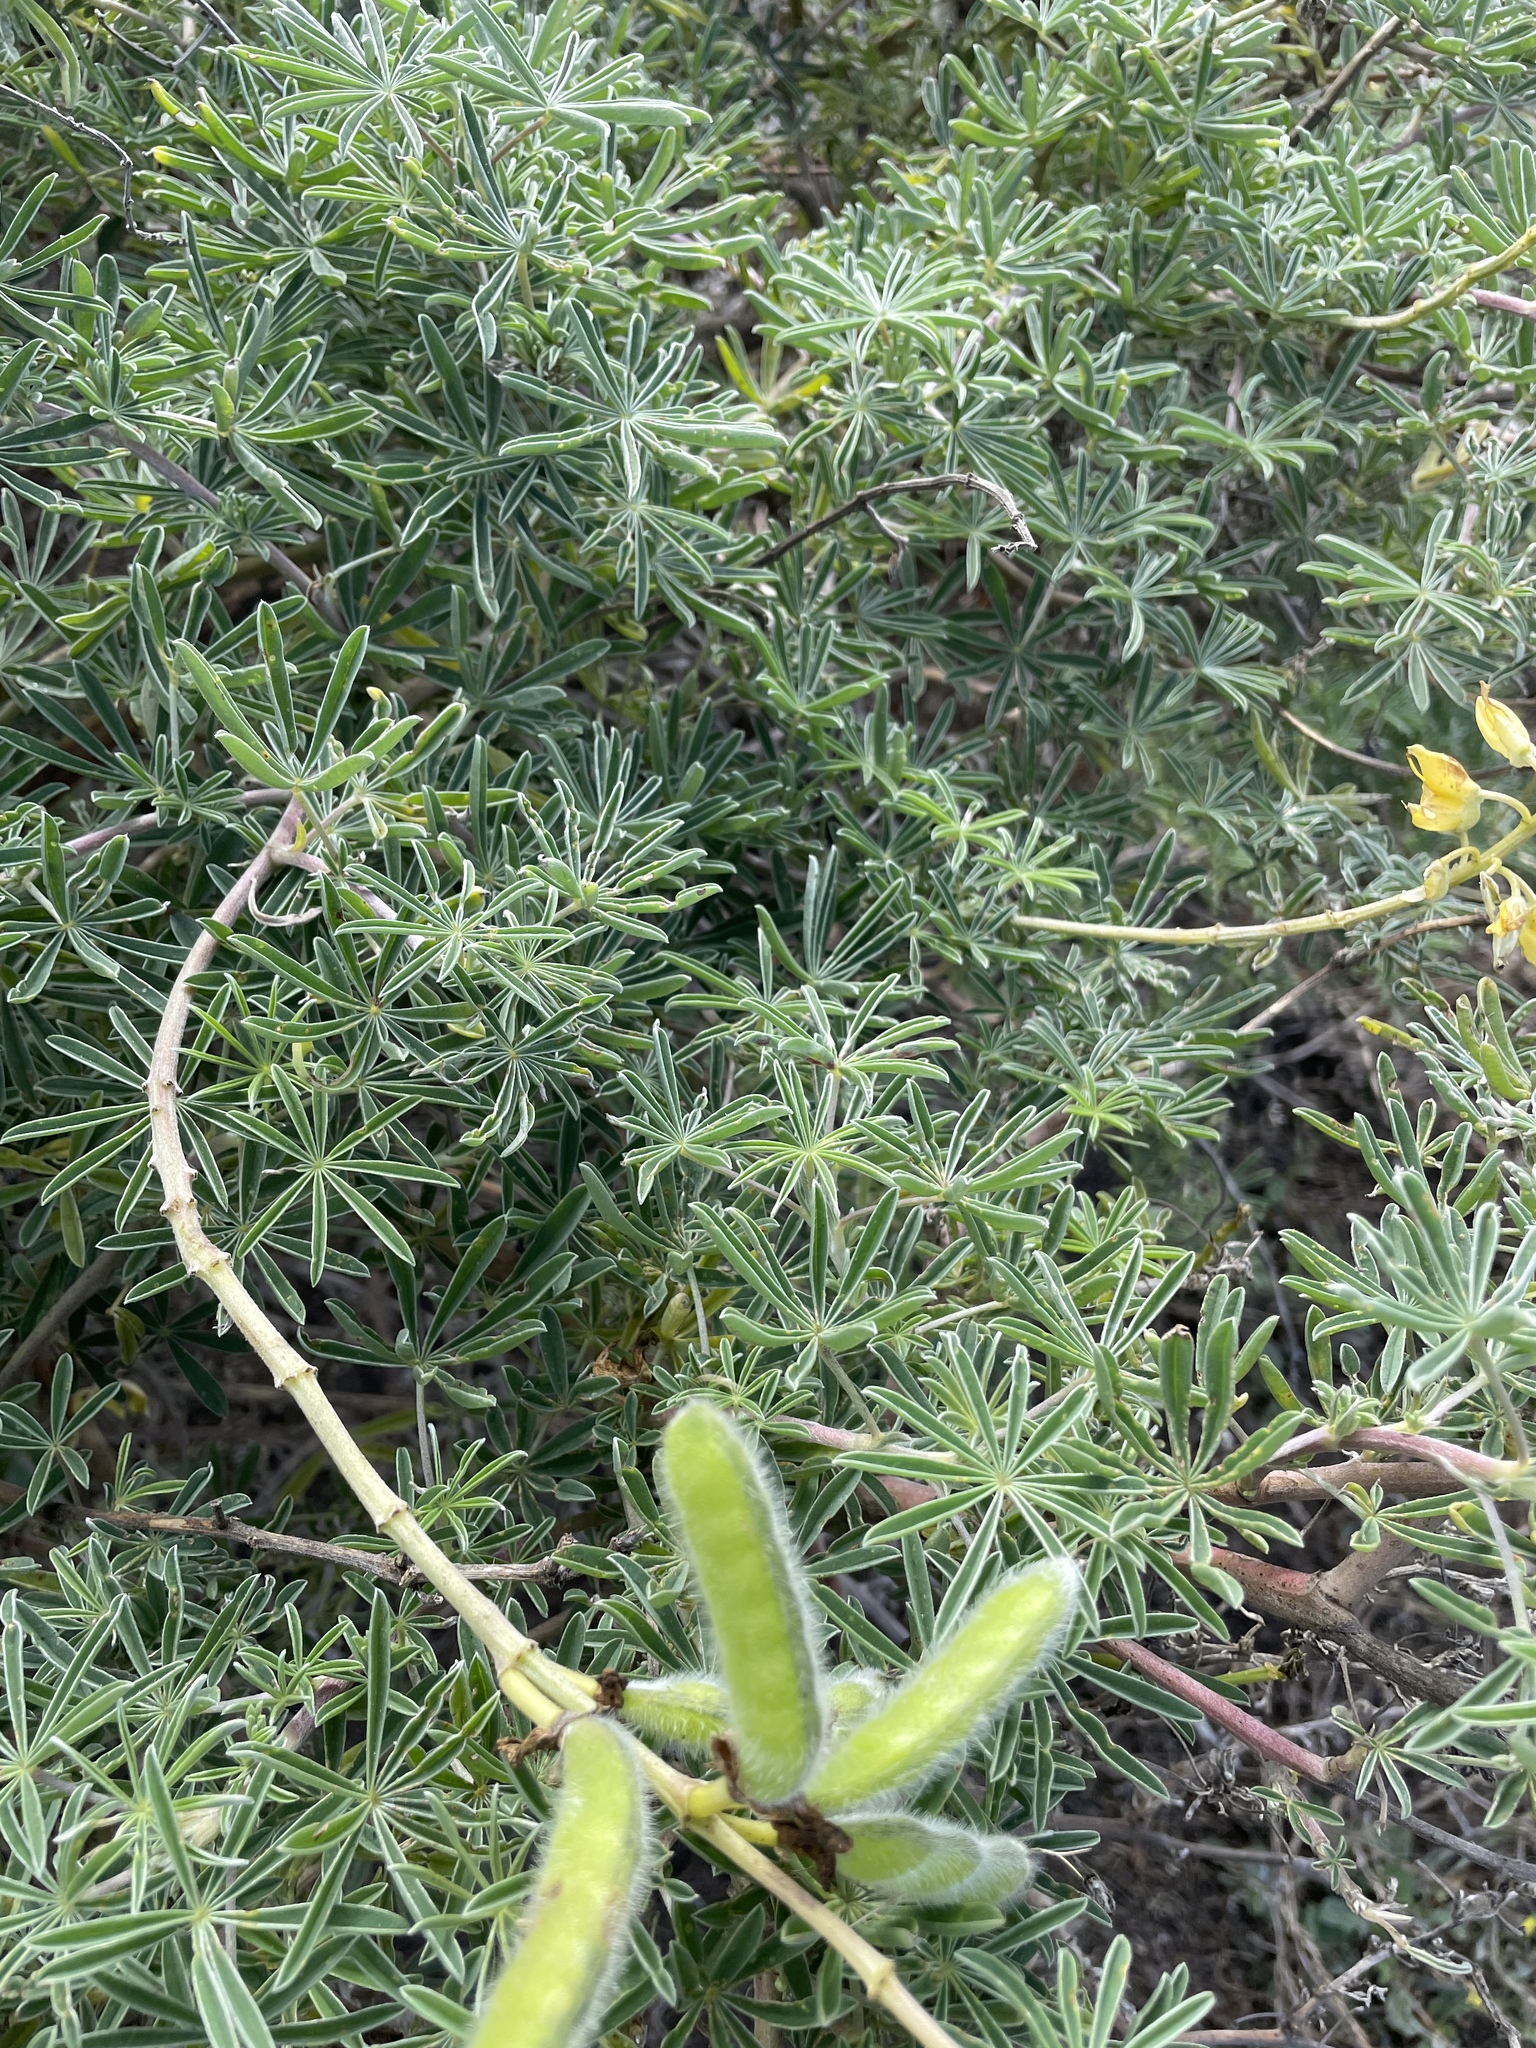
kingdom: Plantae
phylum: Tracheophyta
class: Magnoliopsida
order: Fabales
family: Fabaceae
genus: Lupinus
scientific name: Lupinus arboreus
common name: Yellow bush lupine
